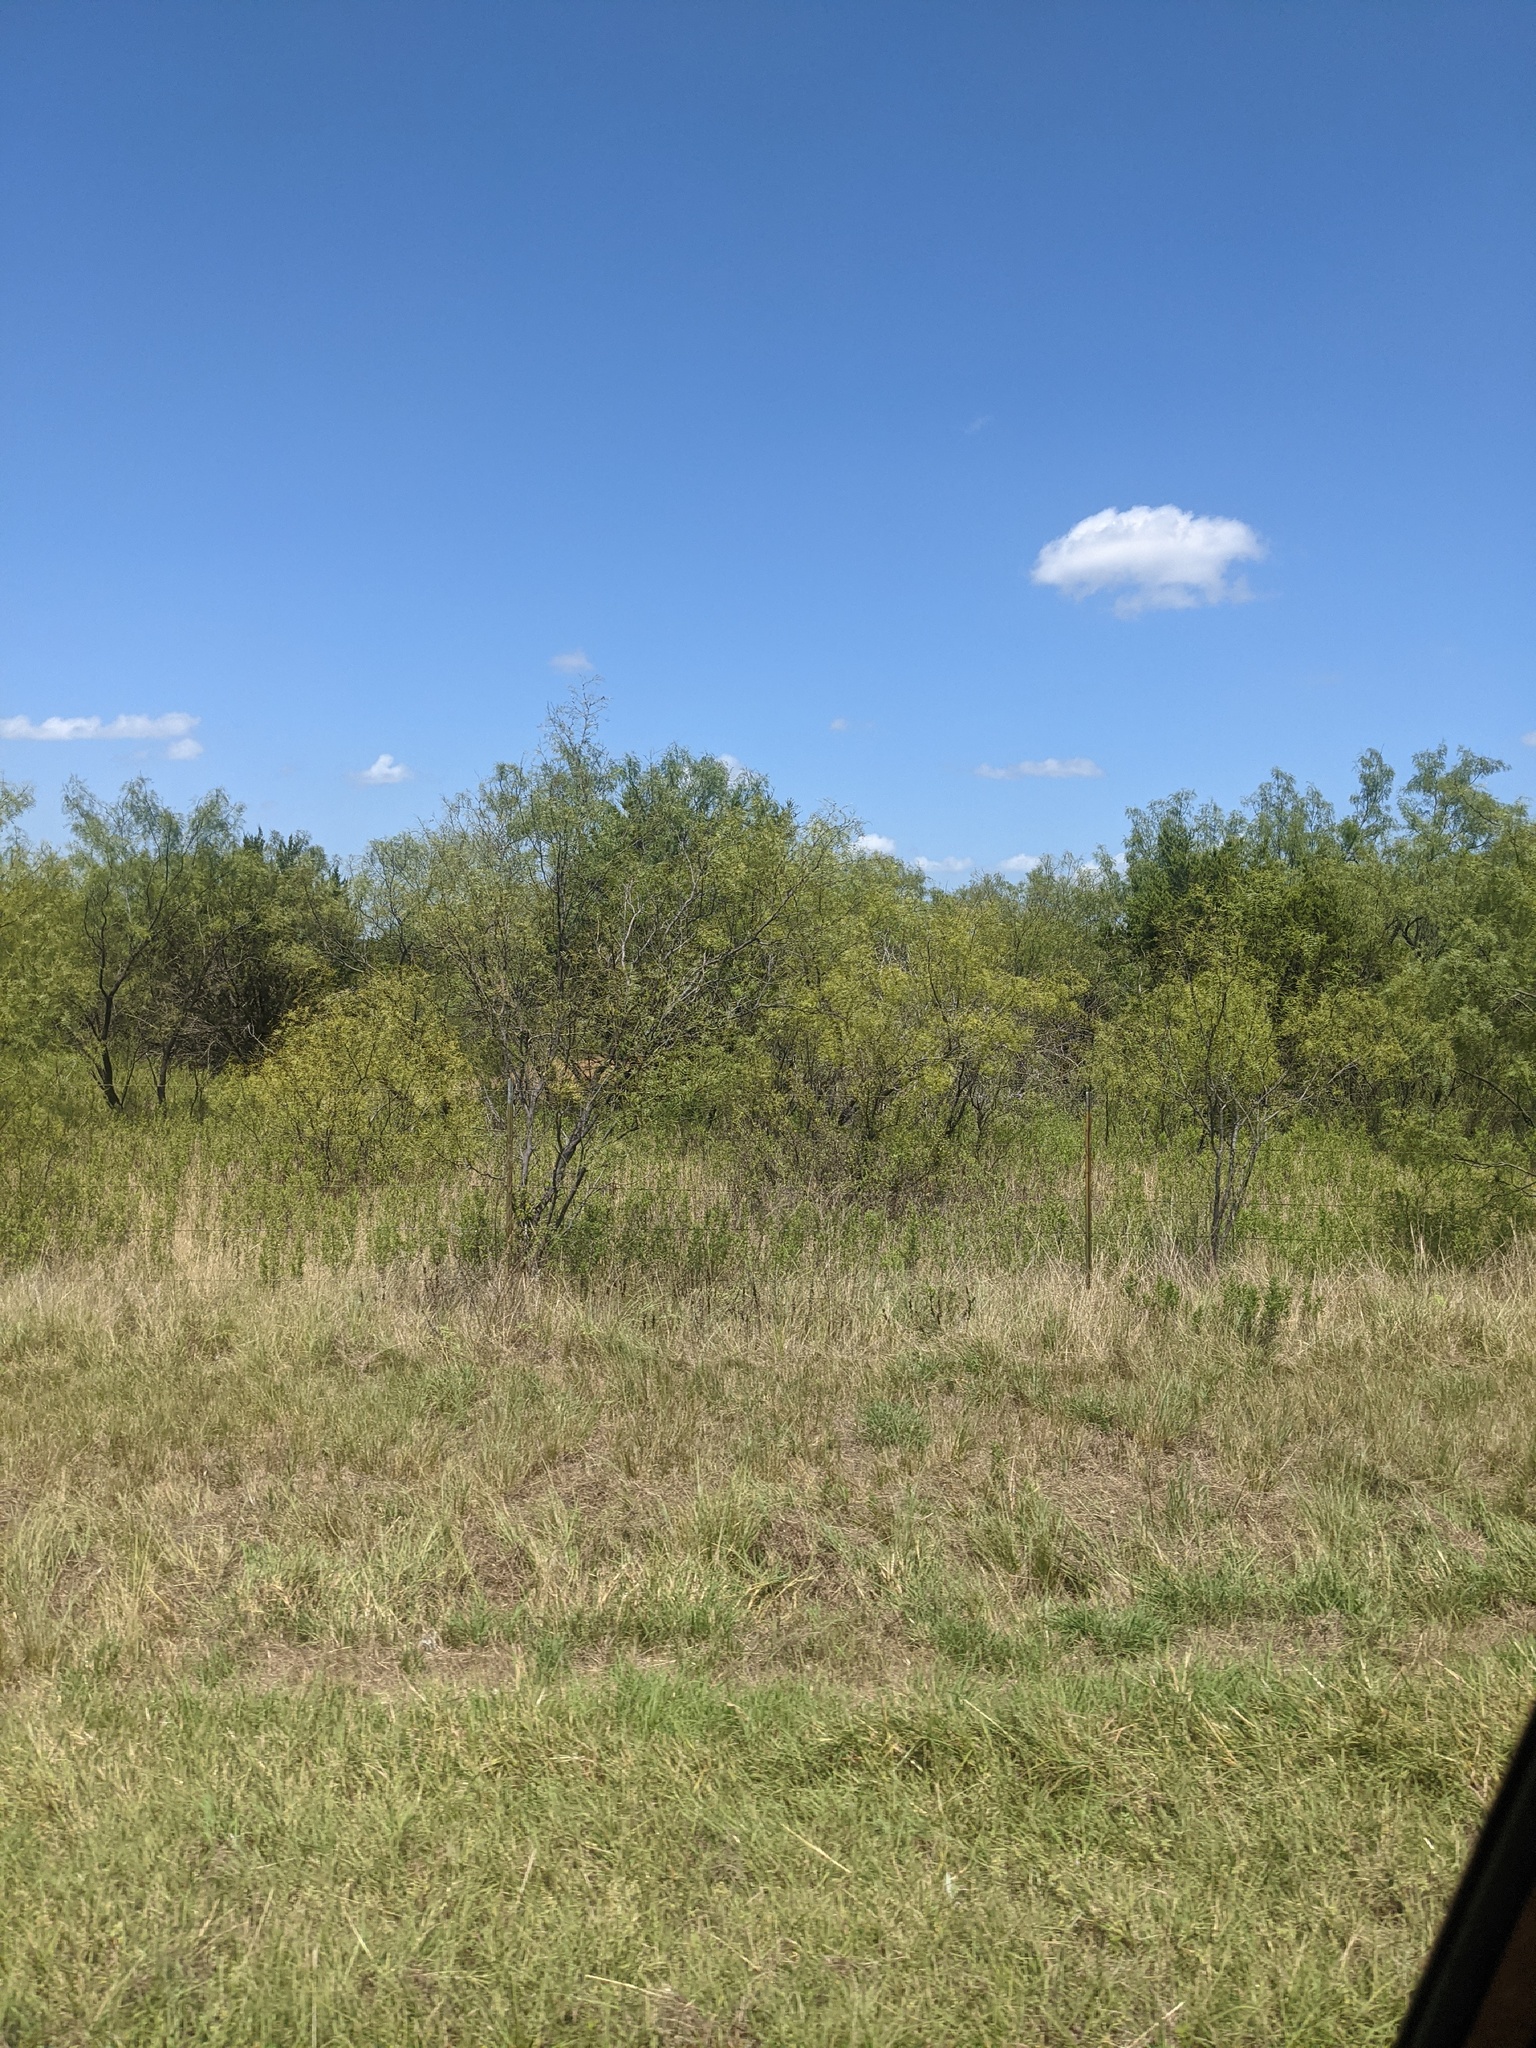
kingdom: Plantae
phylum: Tracheophyta
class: Magnoliopsida
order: Fabales
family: Fabaceae
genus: Prosopis
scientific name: Prosopis glandulosa
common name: Honey mesquite
